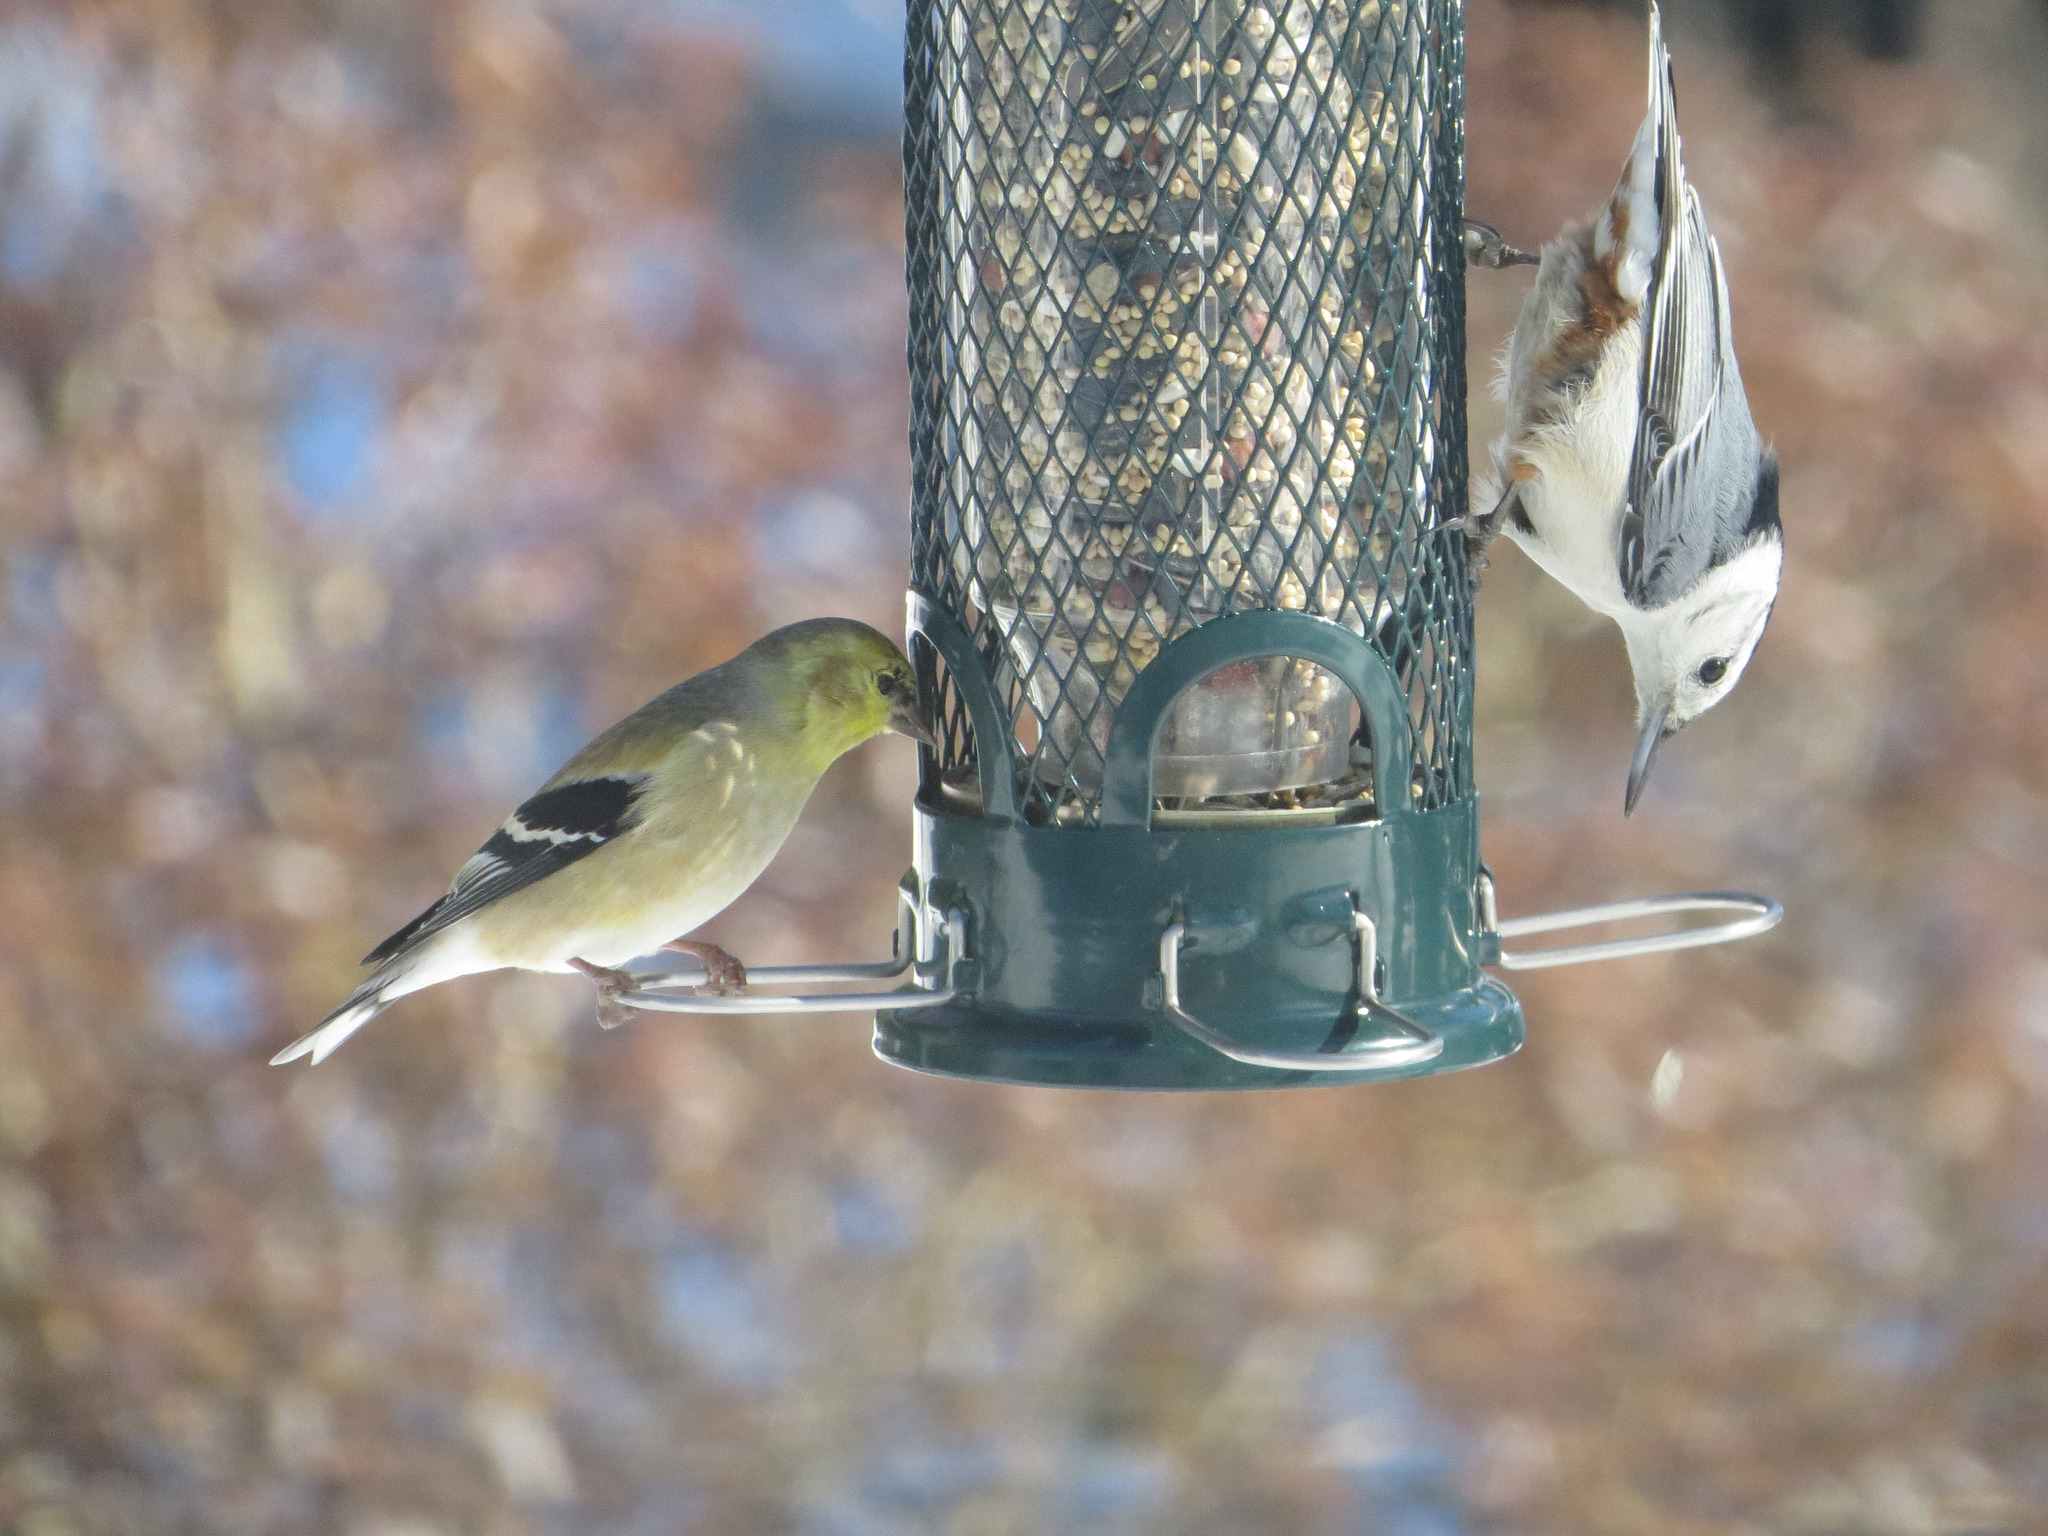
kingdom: Animalia
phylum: Chordata
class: Aves
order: Passeriformes
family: Fringillidae
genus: Spinus
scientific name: Spinus tristis
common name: American goldfinch
